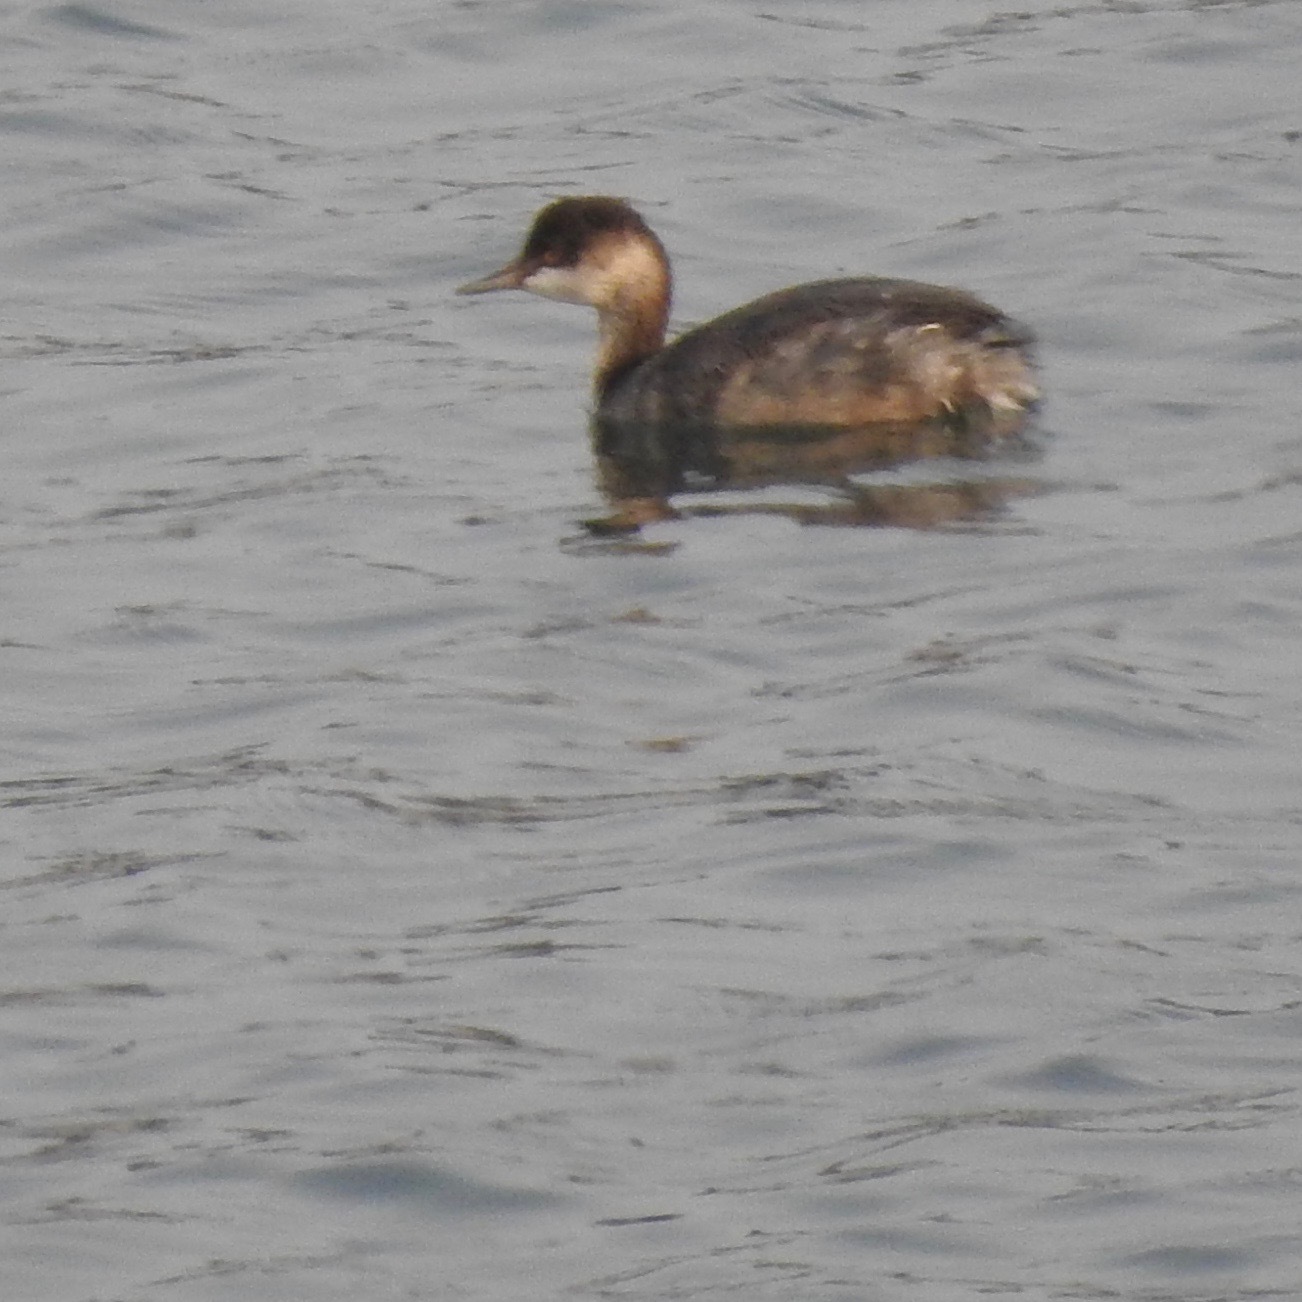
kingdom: Animalia
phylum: Chordata
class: Aves
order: Podicipediformes
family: Podicipedidae
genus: Podiceps
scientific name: Podiceps nigricollis
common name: Black-necked grebe
